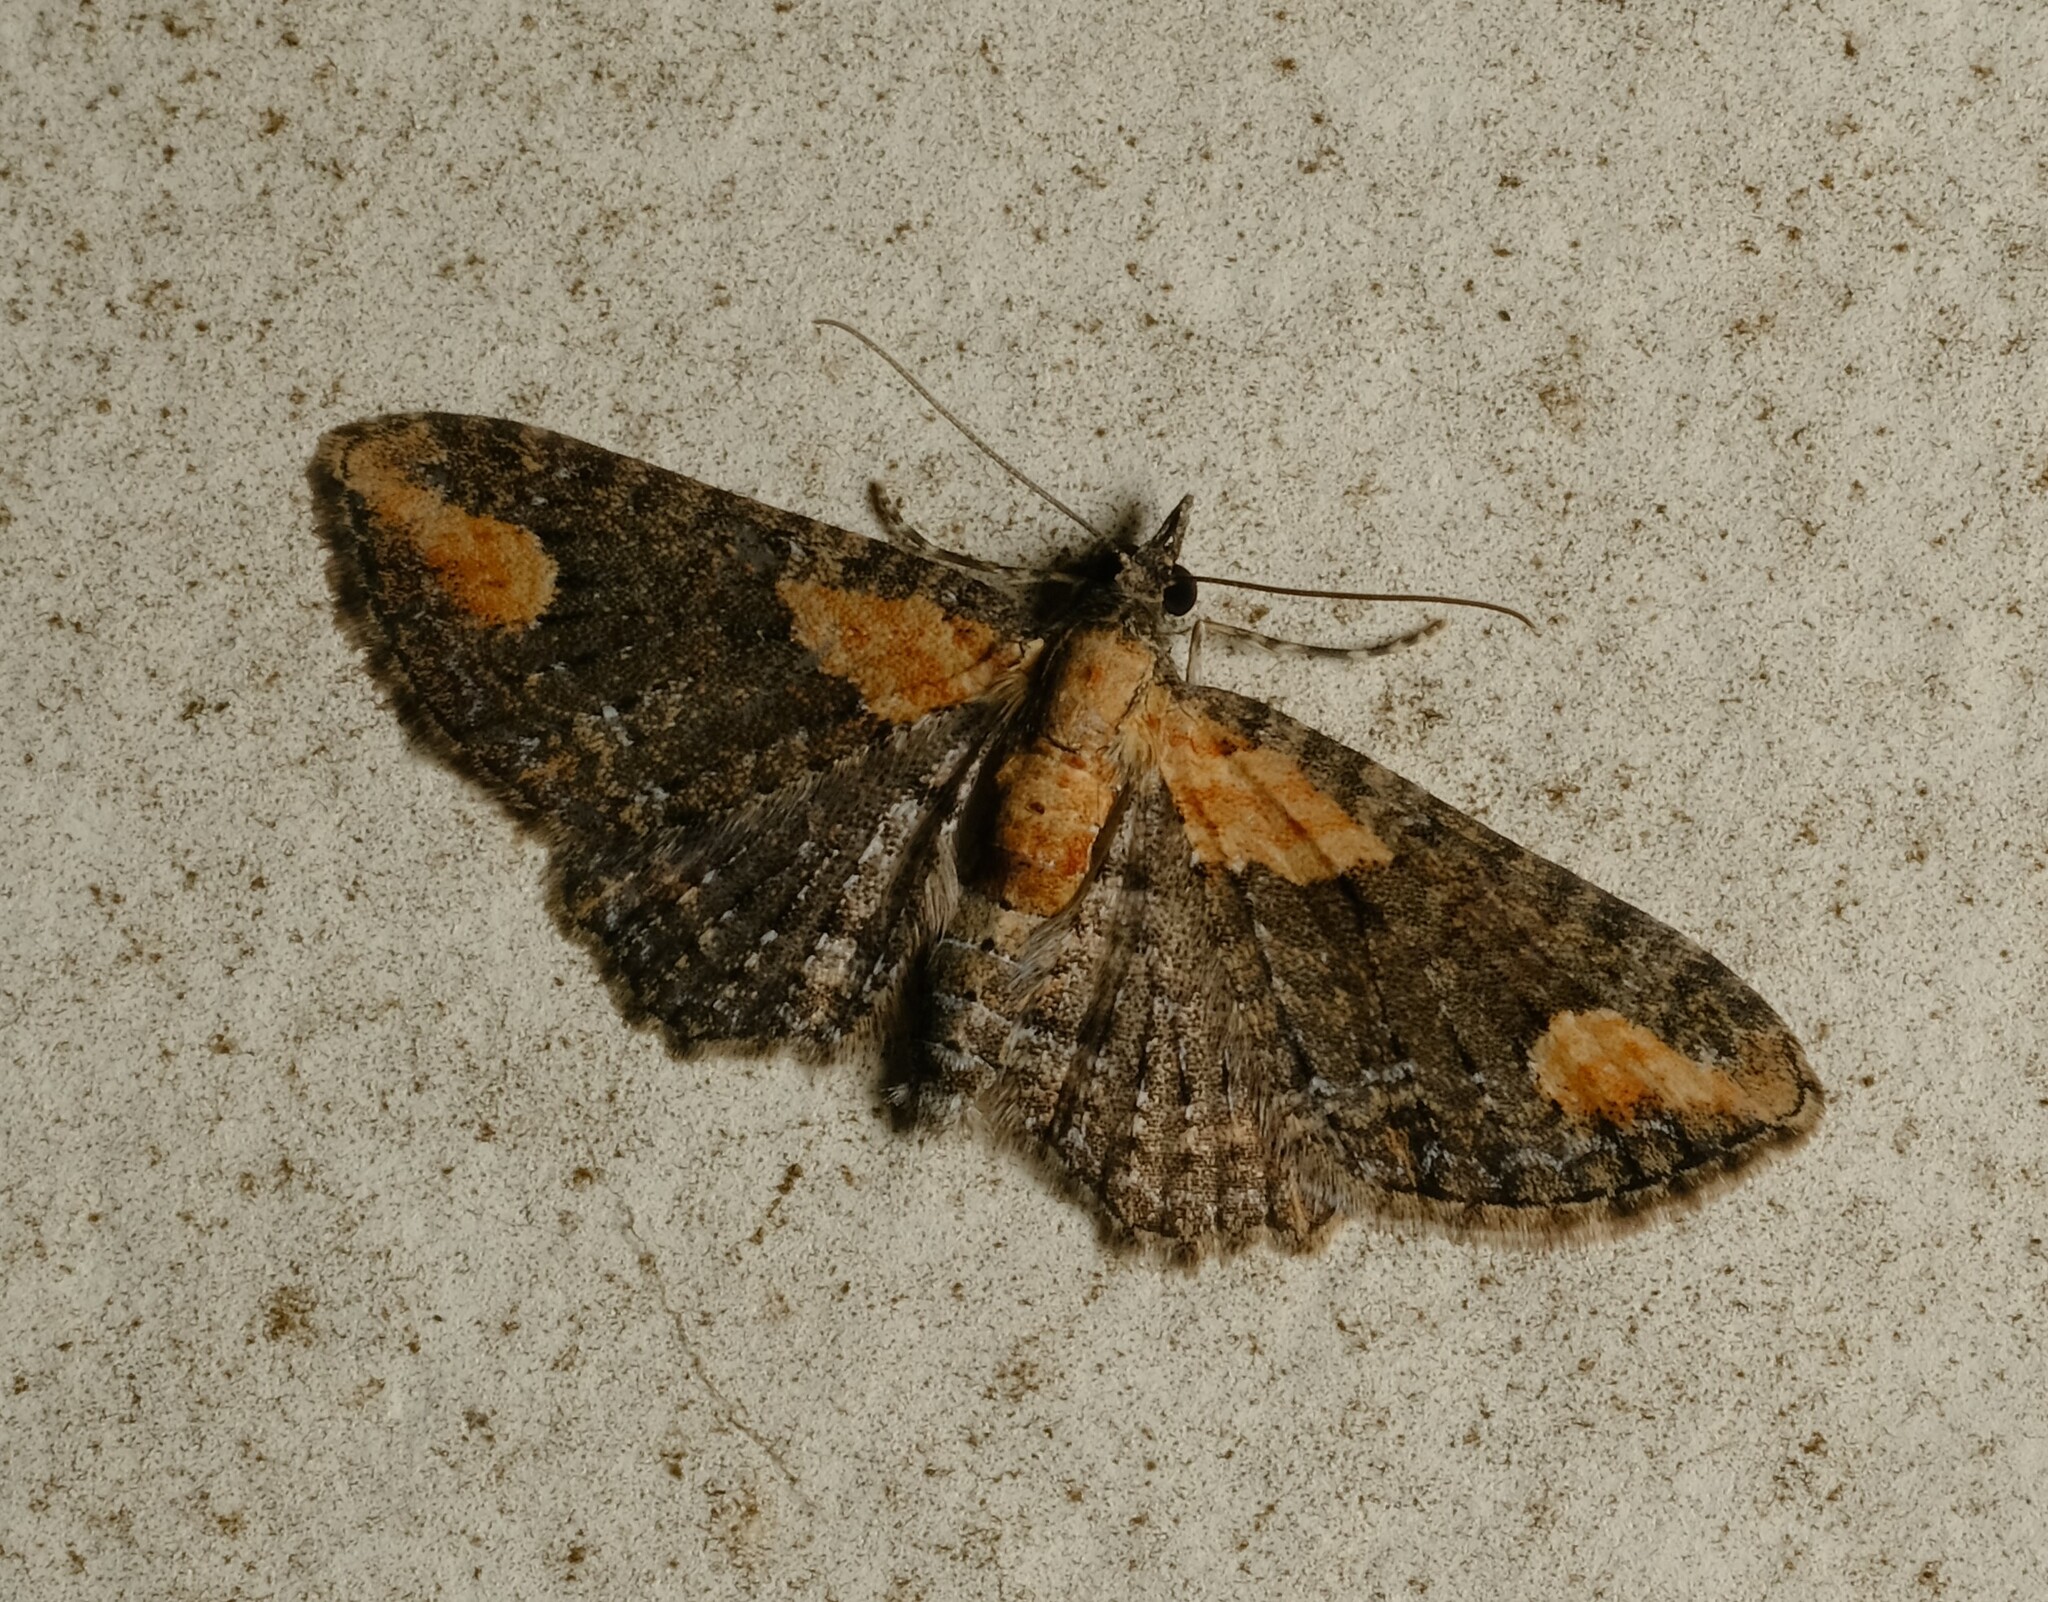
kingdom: Animalia
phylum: Arthropoda
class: Insecta
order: Lepidoptera
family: Geometridae
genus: Pasiphilodes
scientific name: Pasiphilodes testulata
